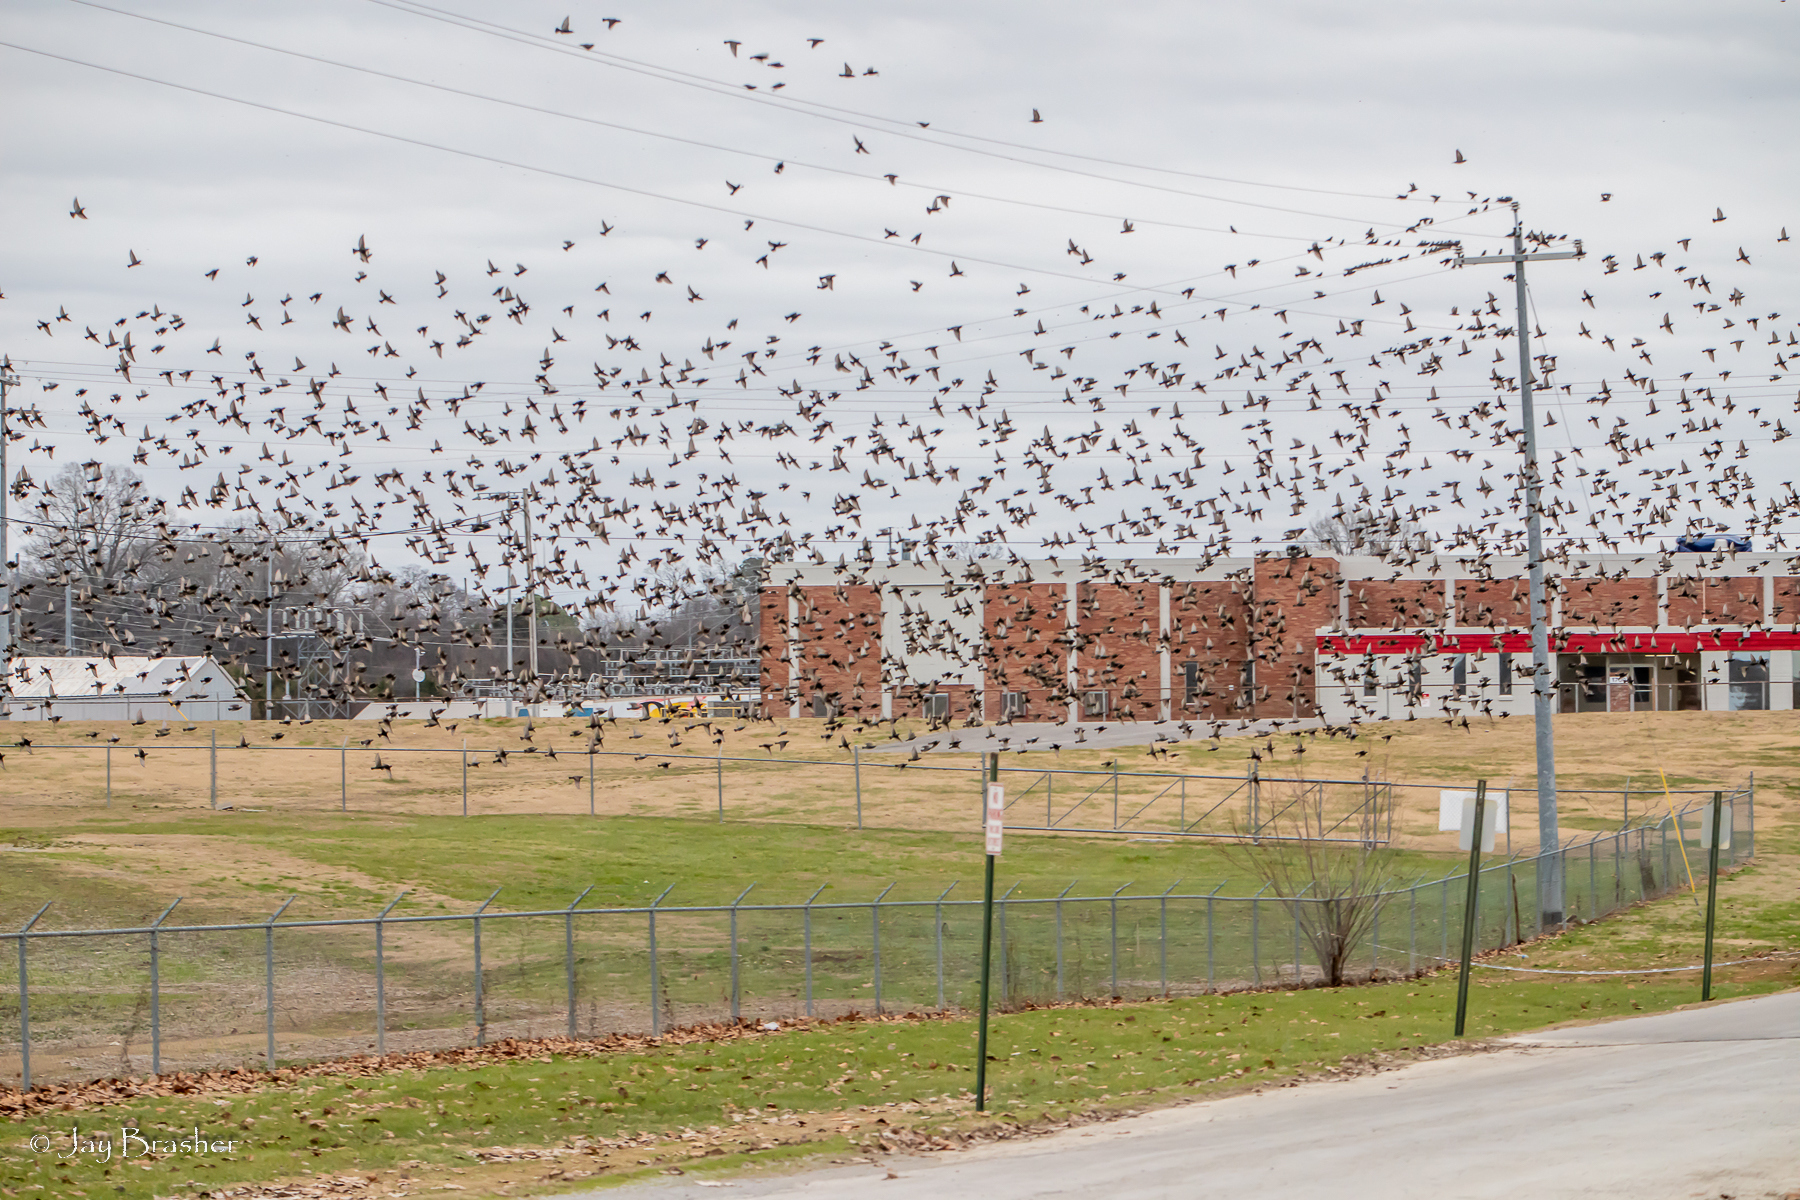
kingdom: Animalia
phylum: Chordata
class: Aves
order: Passeriformes
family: Sturnidae
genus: Sturnus
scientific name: Sturnus vulgaris
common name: Common starling
